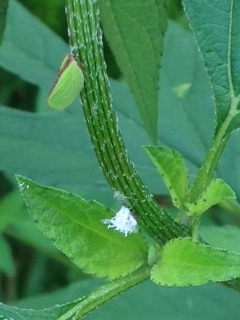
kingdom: Animalia
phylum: Arthropoda
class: Insecta
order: Hemiptera
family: Acanaloniidae
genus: Acanalonia
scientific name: Acanalonia bivittata
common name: Two-striped planthopper
